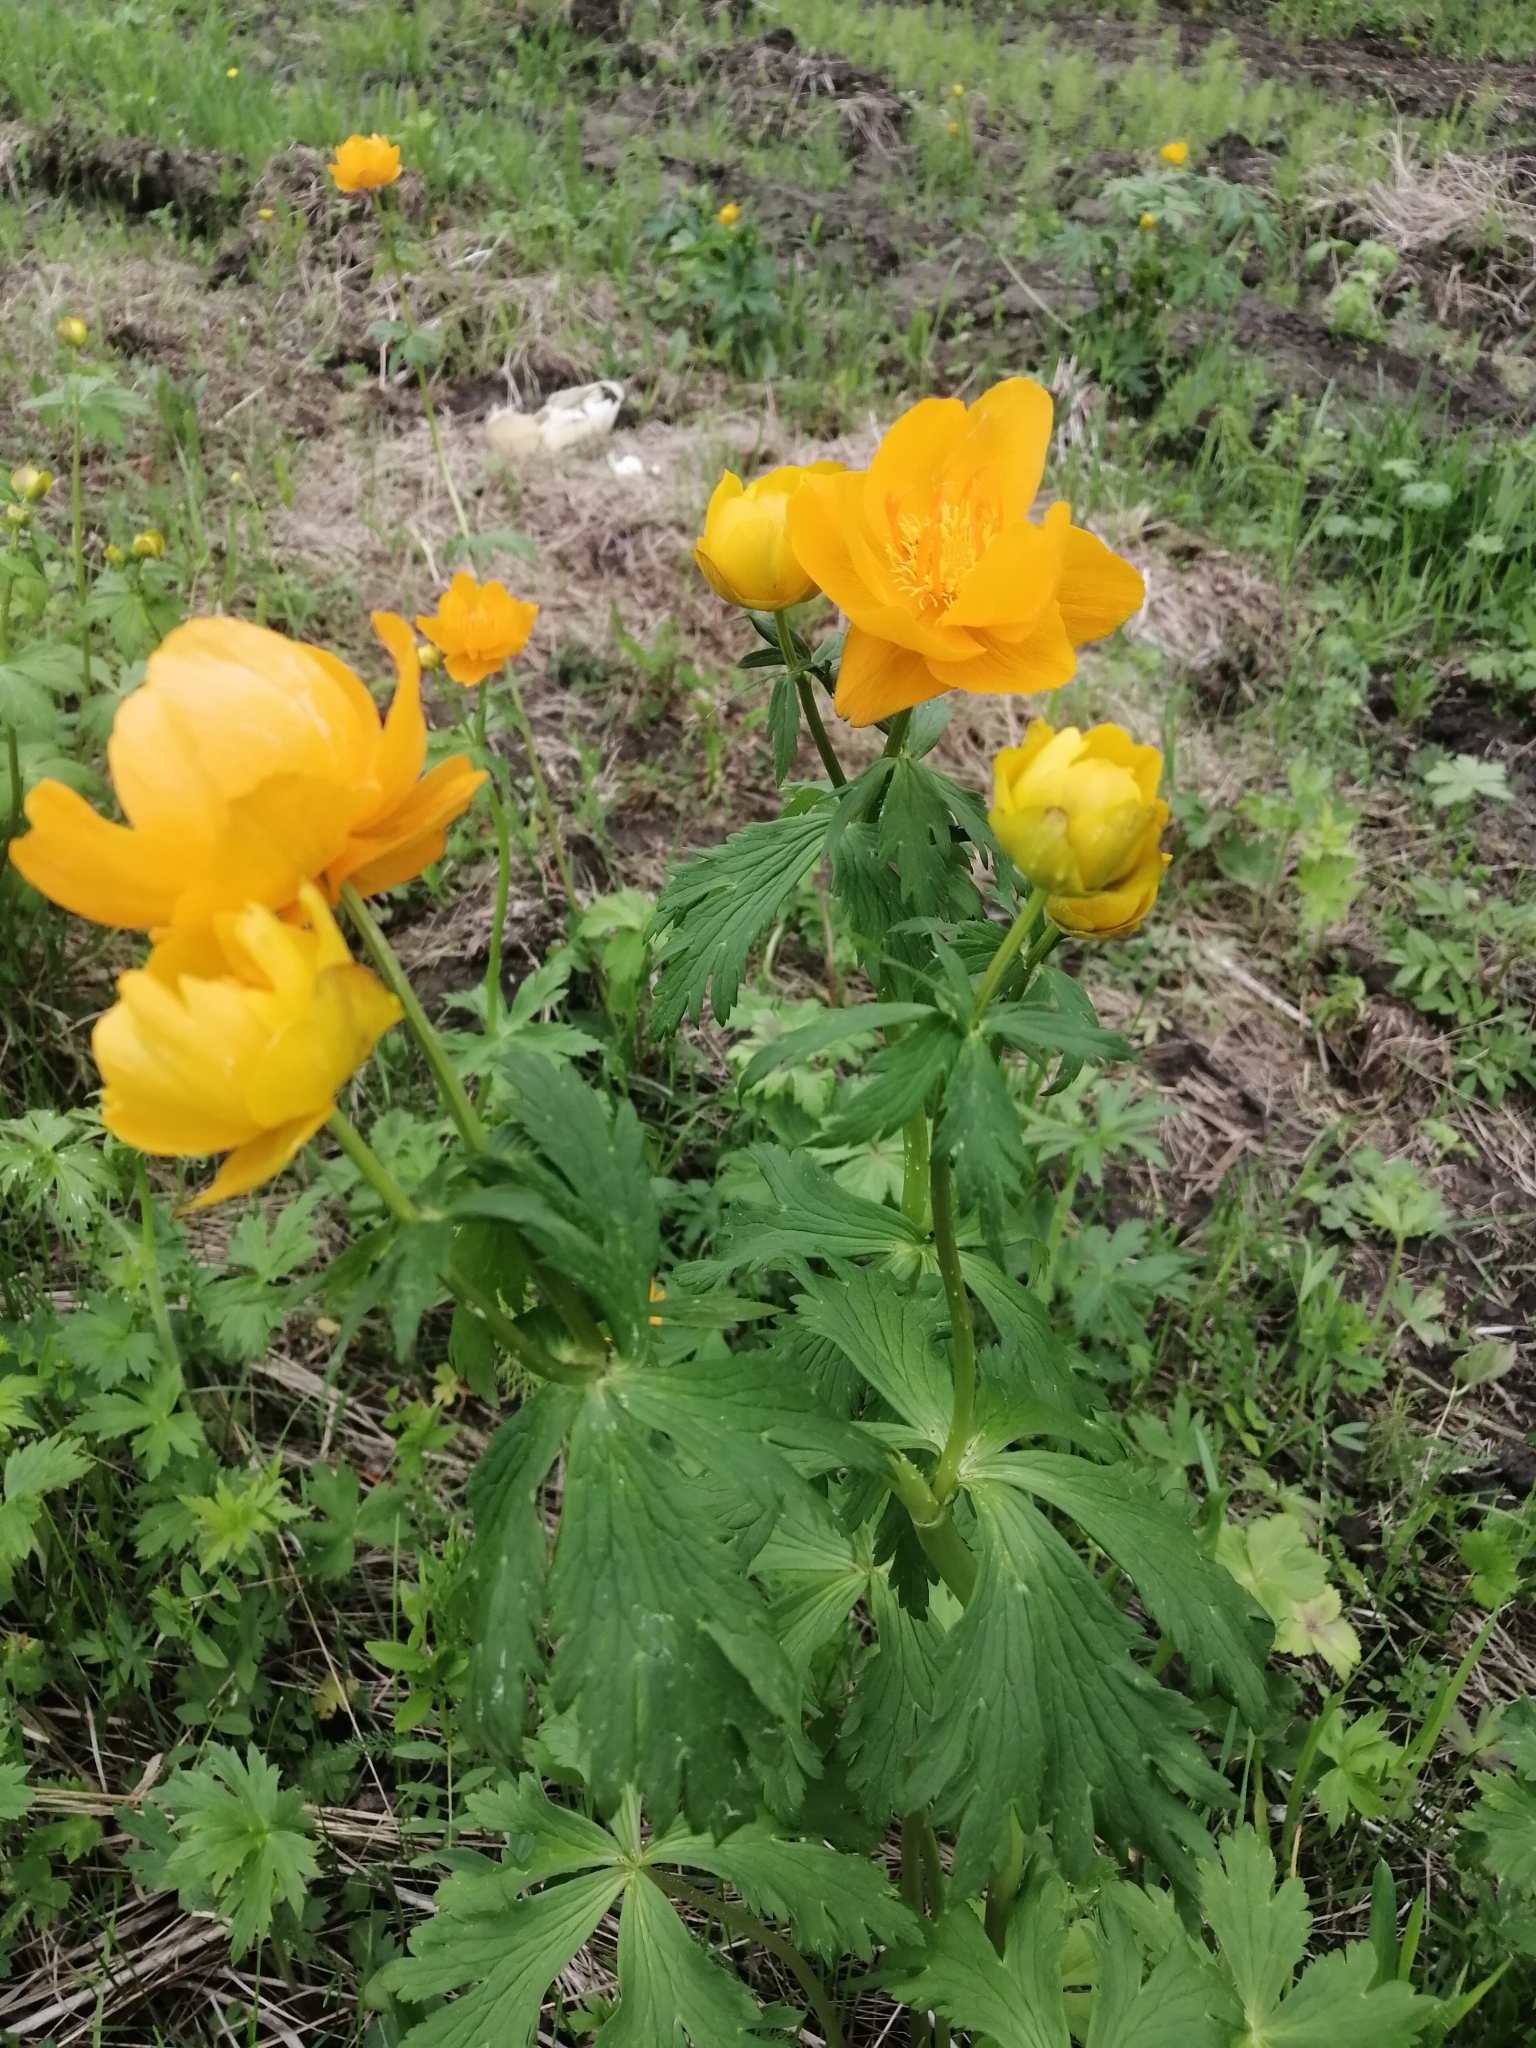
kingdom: Plantae
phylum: Tracheophyta
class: Magnoliopsida
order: Ranunculales
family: Ranunculaceae
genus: Trollius
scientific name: Trollius kytmanovii
